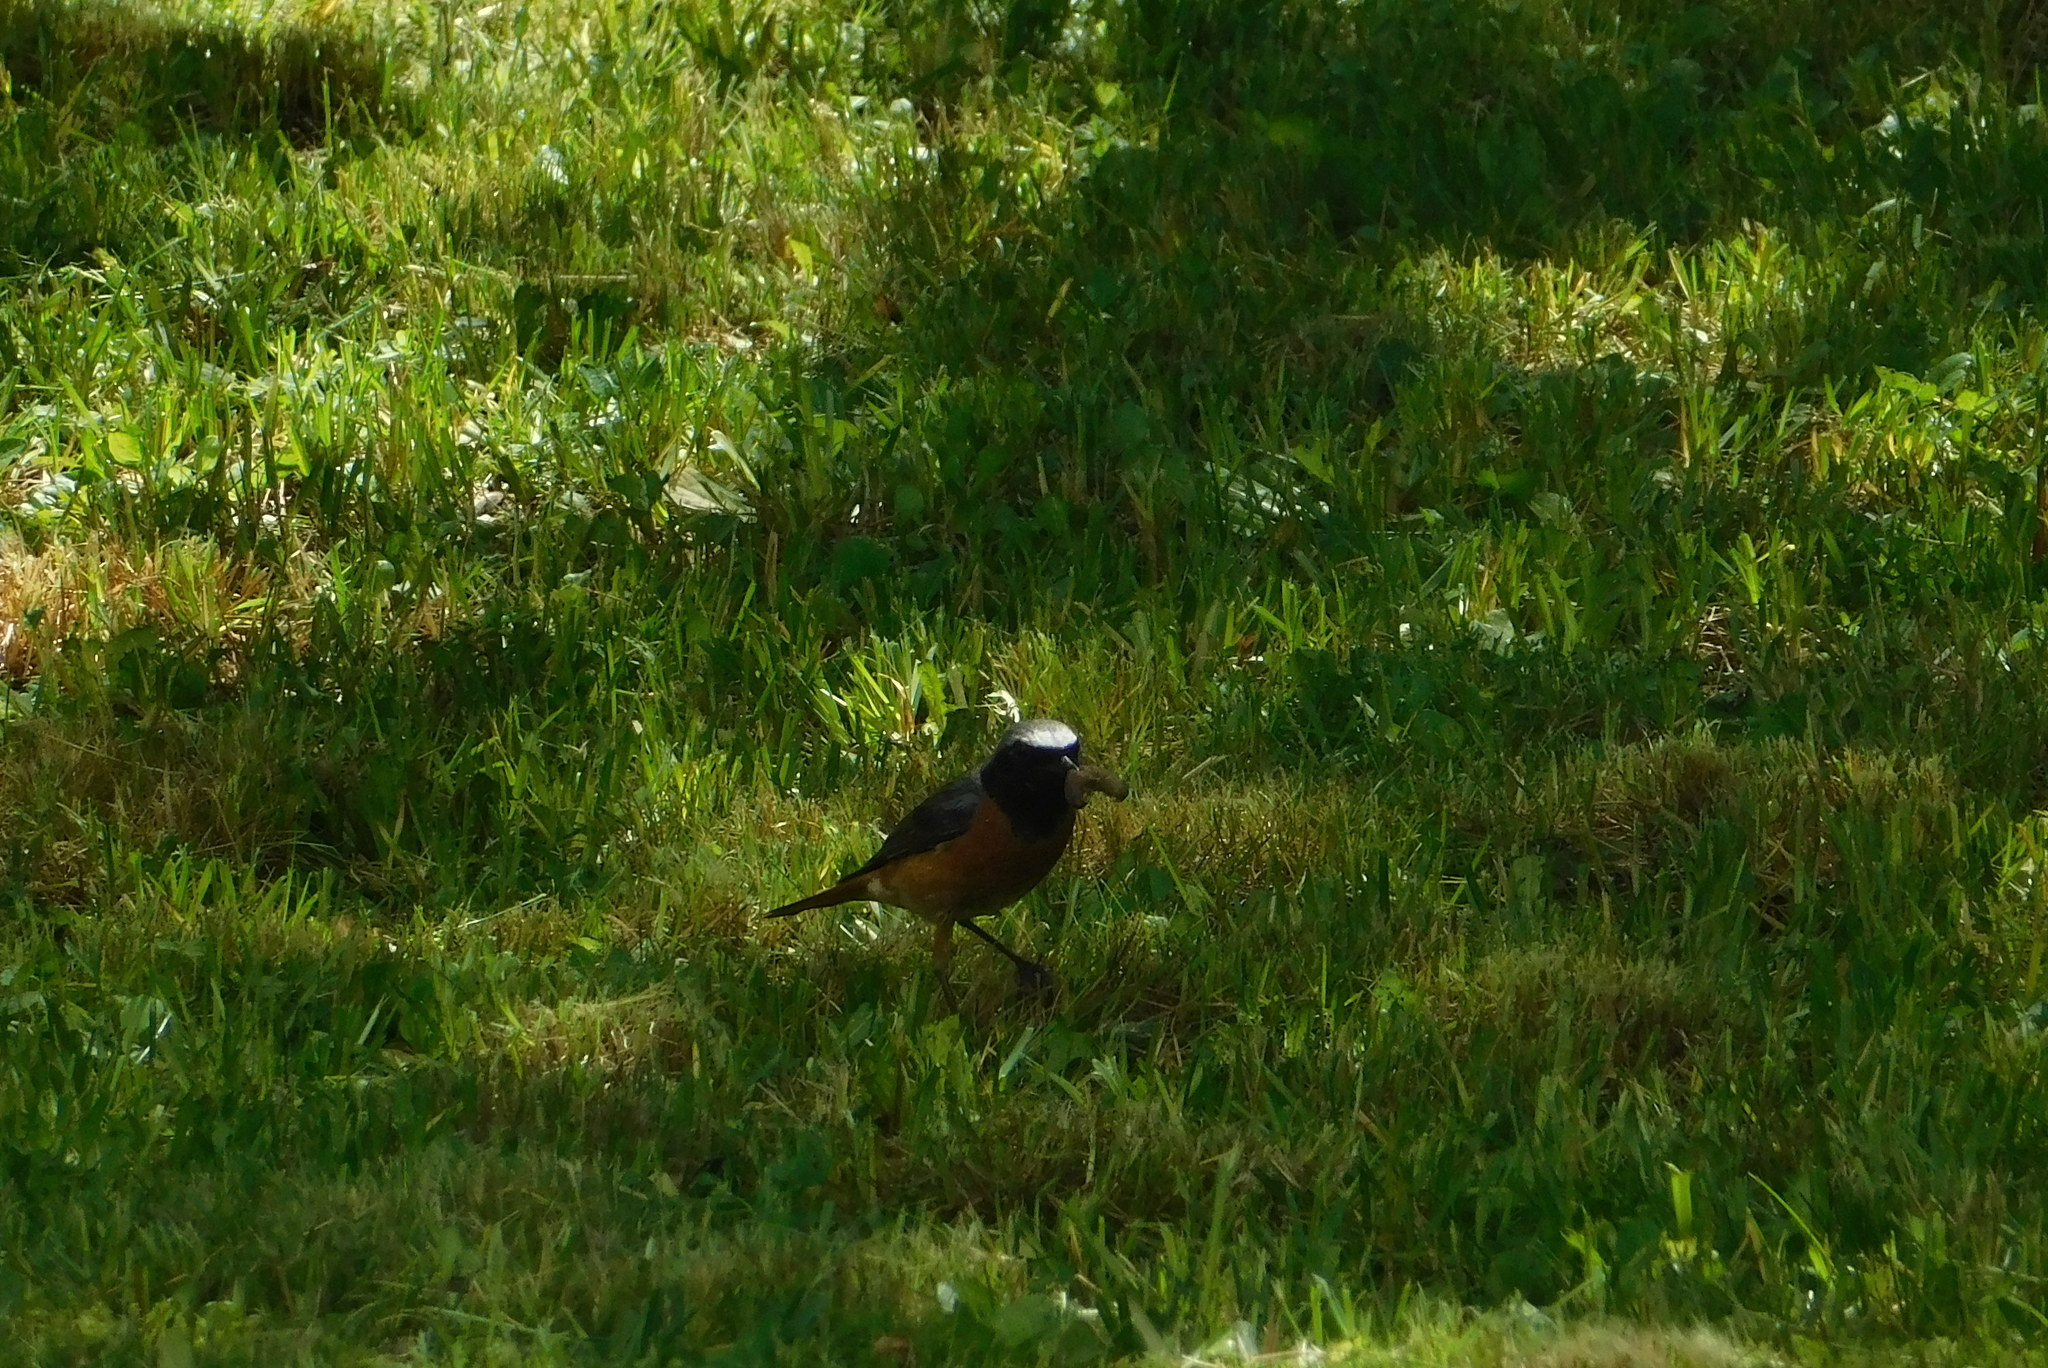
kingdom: Animalia
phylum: Chordata
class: Aves
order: Passeriformes
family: Muscicapidae
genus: Phoenicurus
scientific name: Phoenicurus phoenicurus
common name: Common redstart
